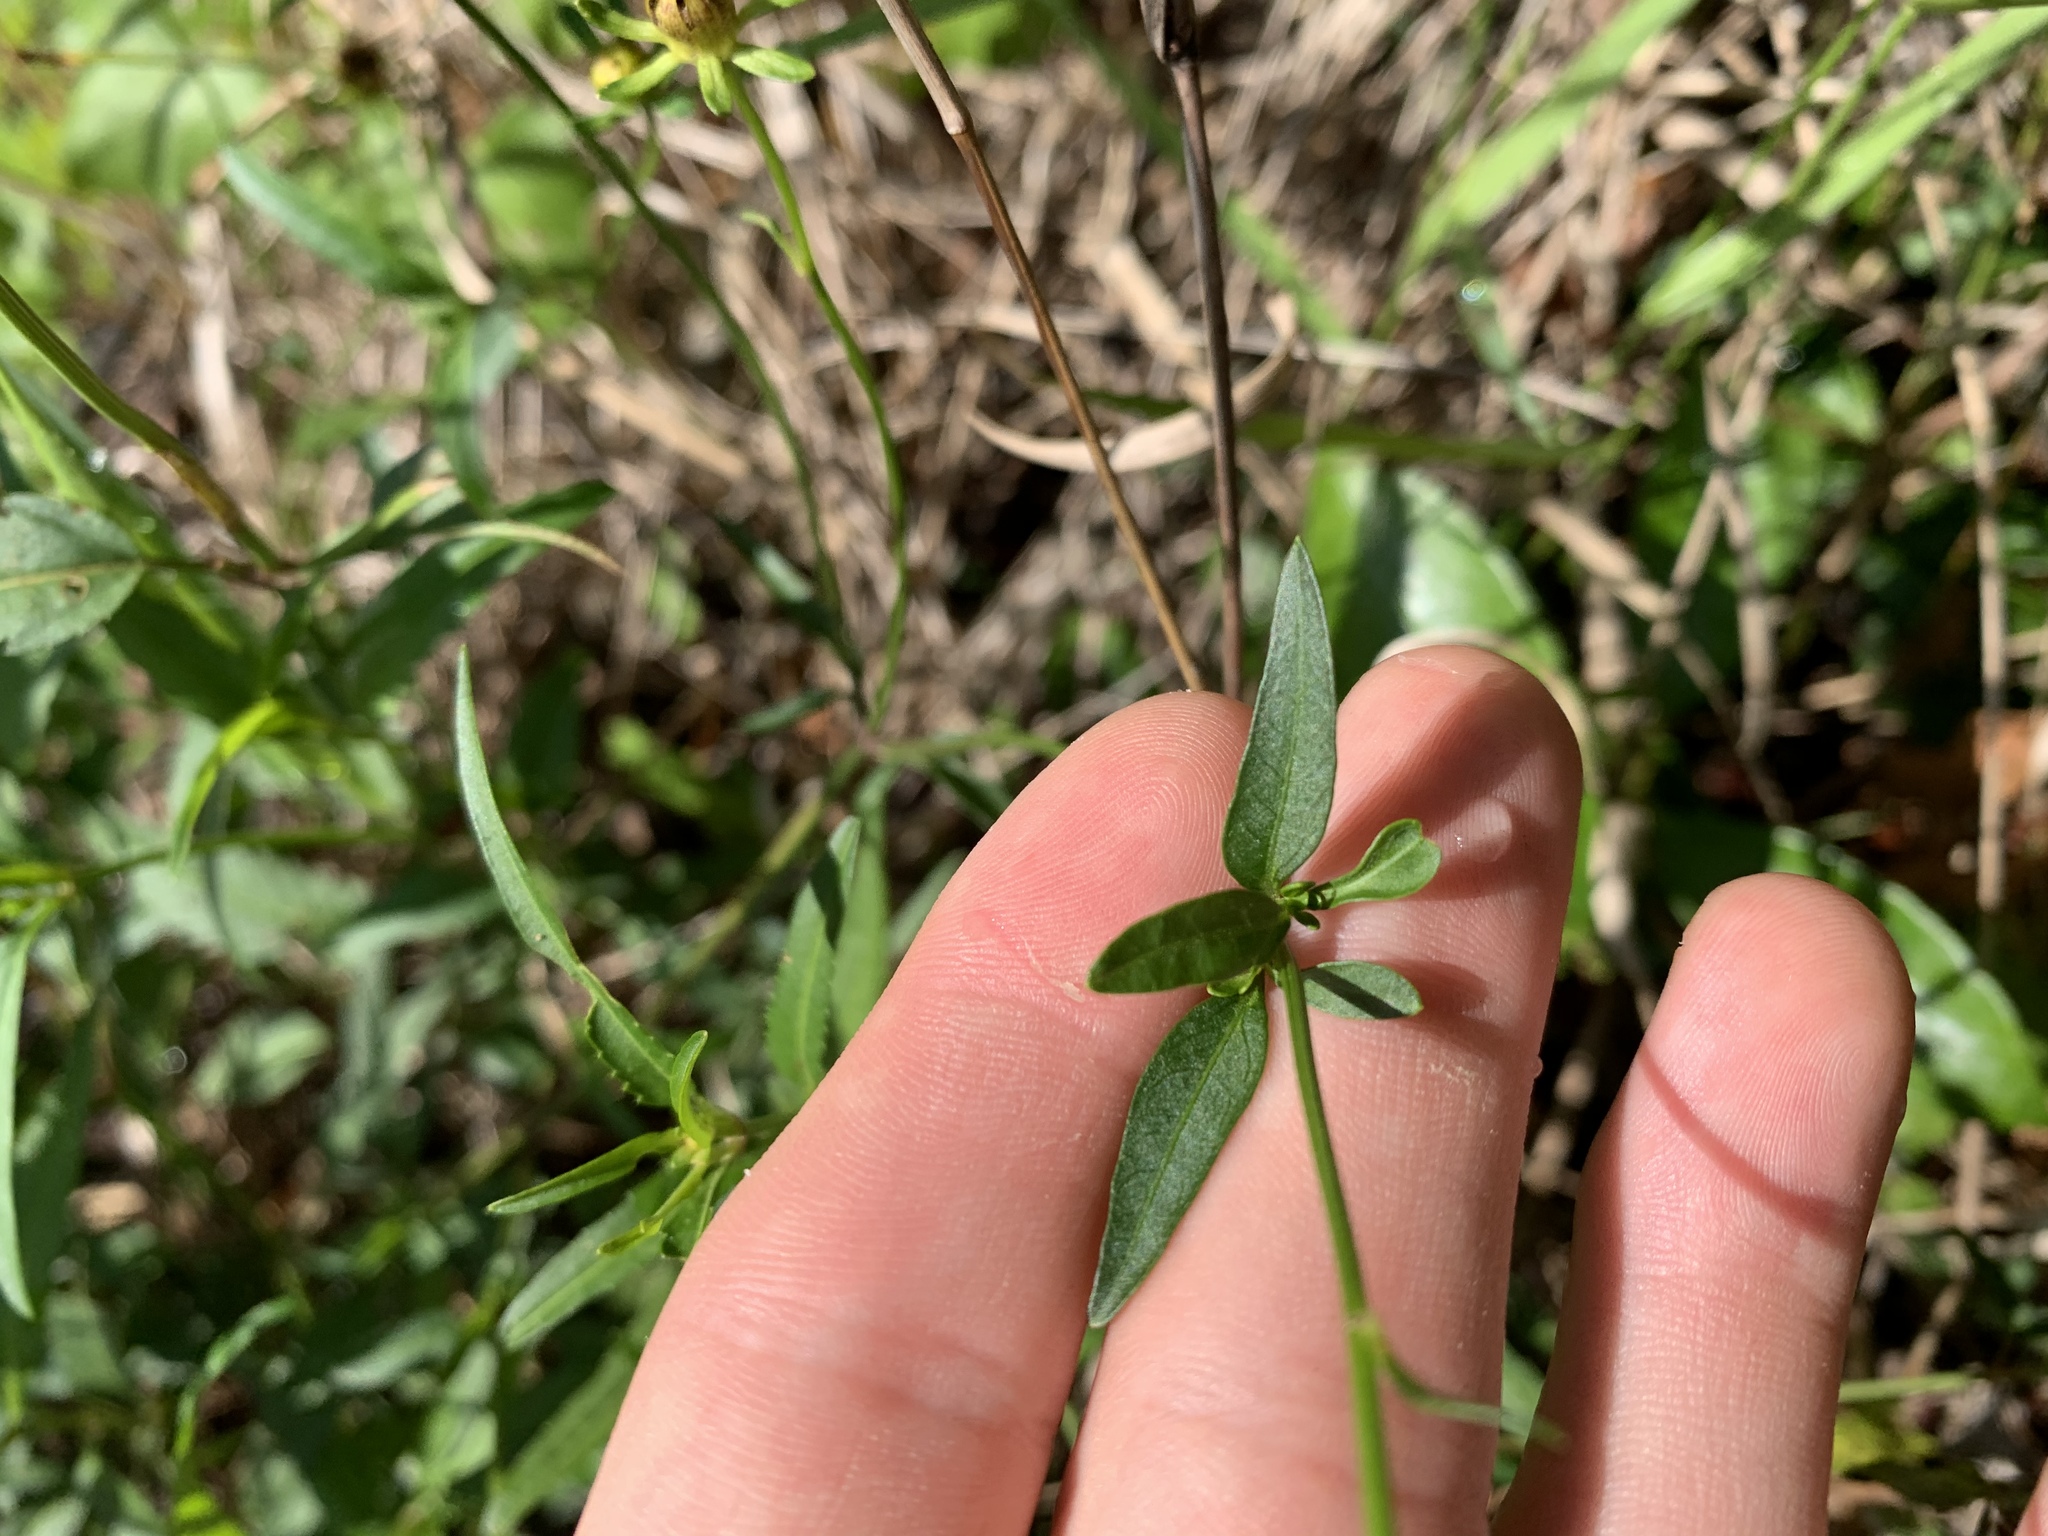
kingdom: Plantae
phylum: Tracheophyta
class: Magnoliopsida
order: Asterales
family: Asteraceae
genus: Bidens
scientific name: Bidens mitis
